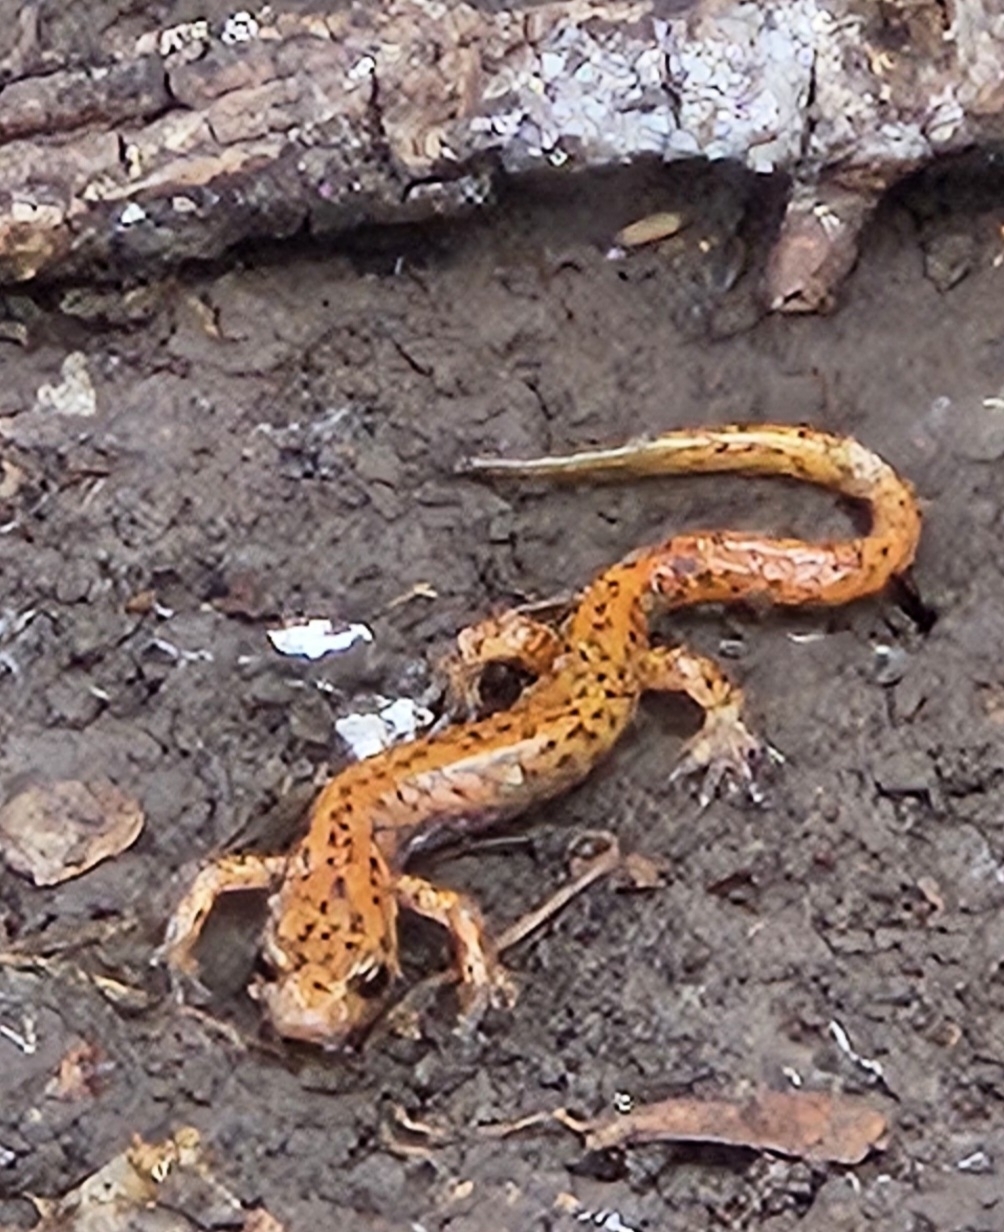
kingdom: Animalia
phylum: Chordata
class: Amphibia
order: Caudata
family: Plethodontidae
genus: Eurycea
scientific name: Eurycea lucifuga
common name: Cave salamander
